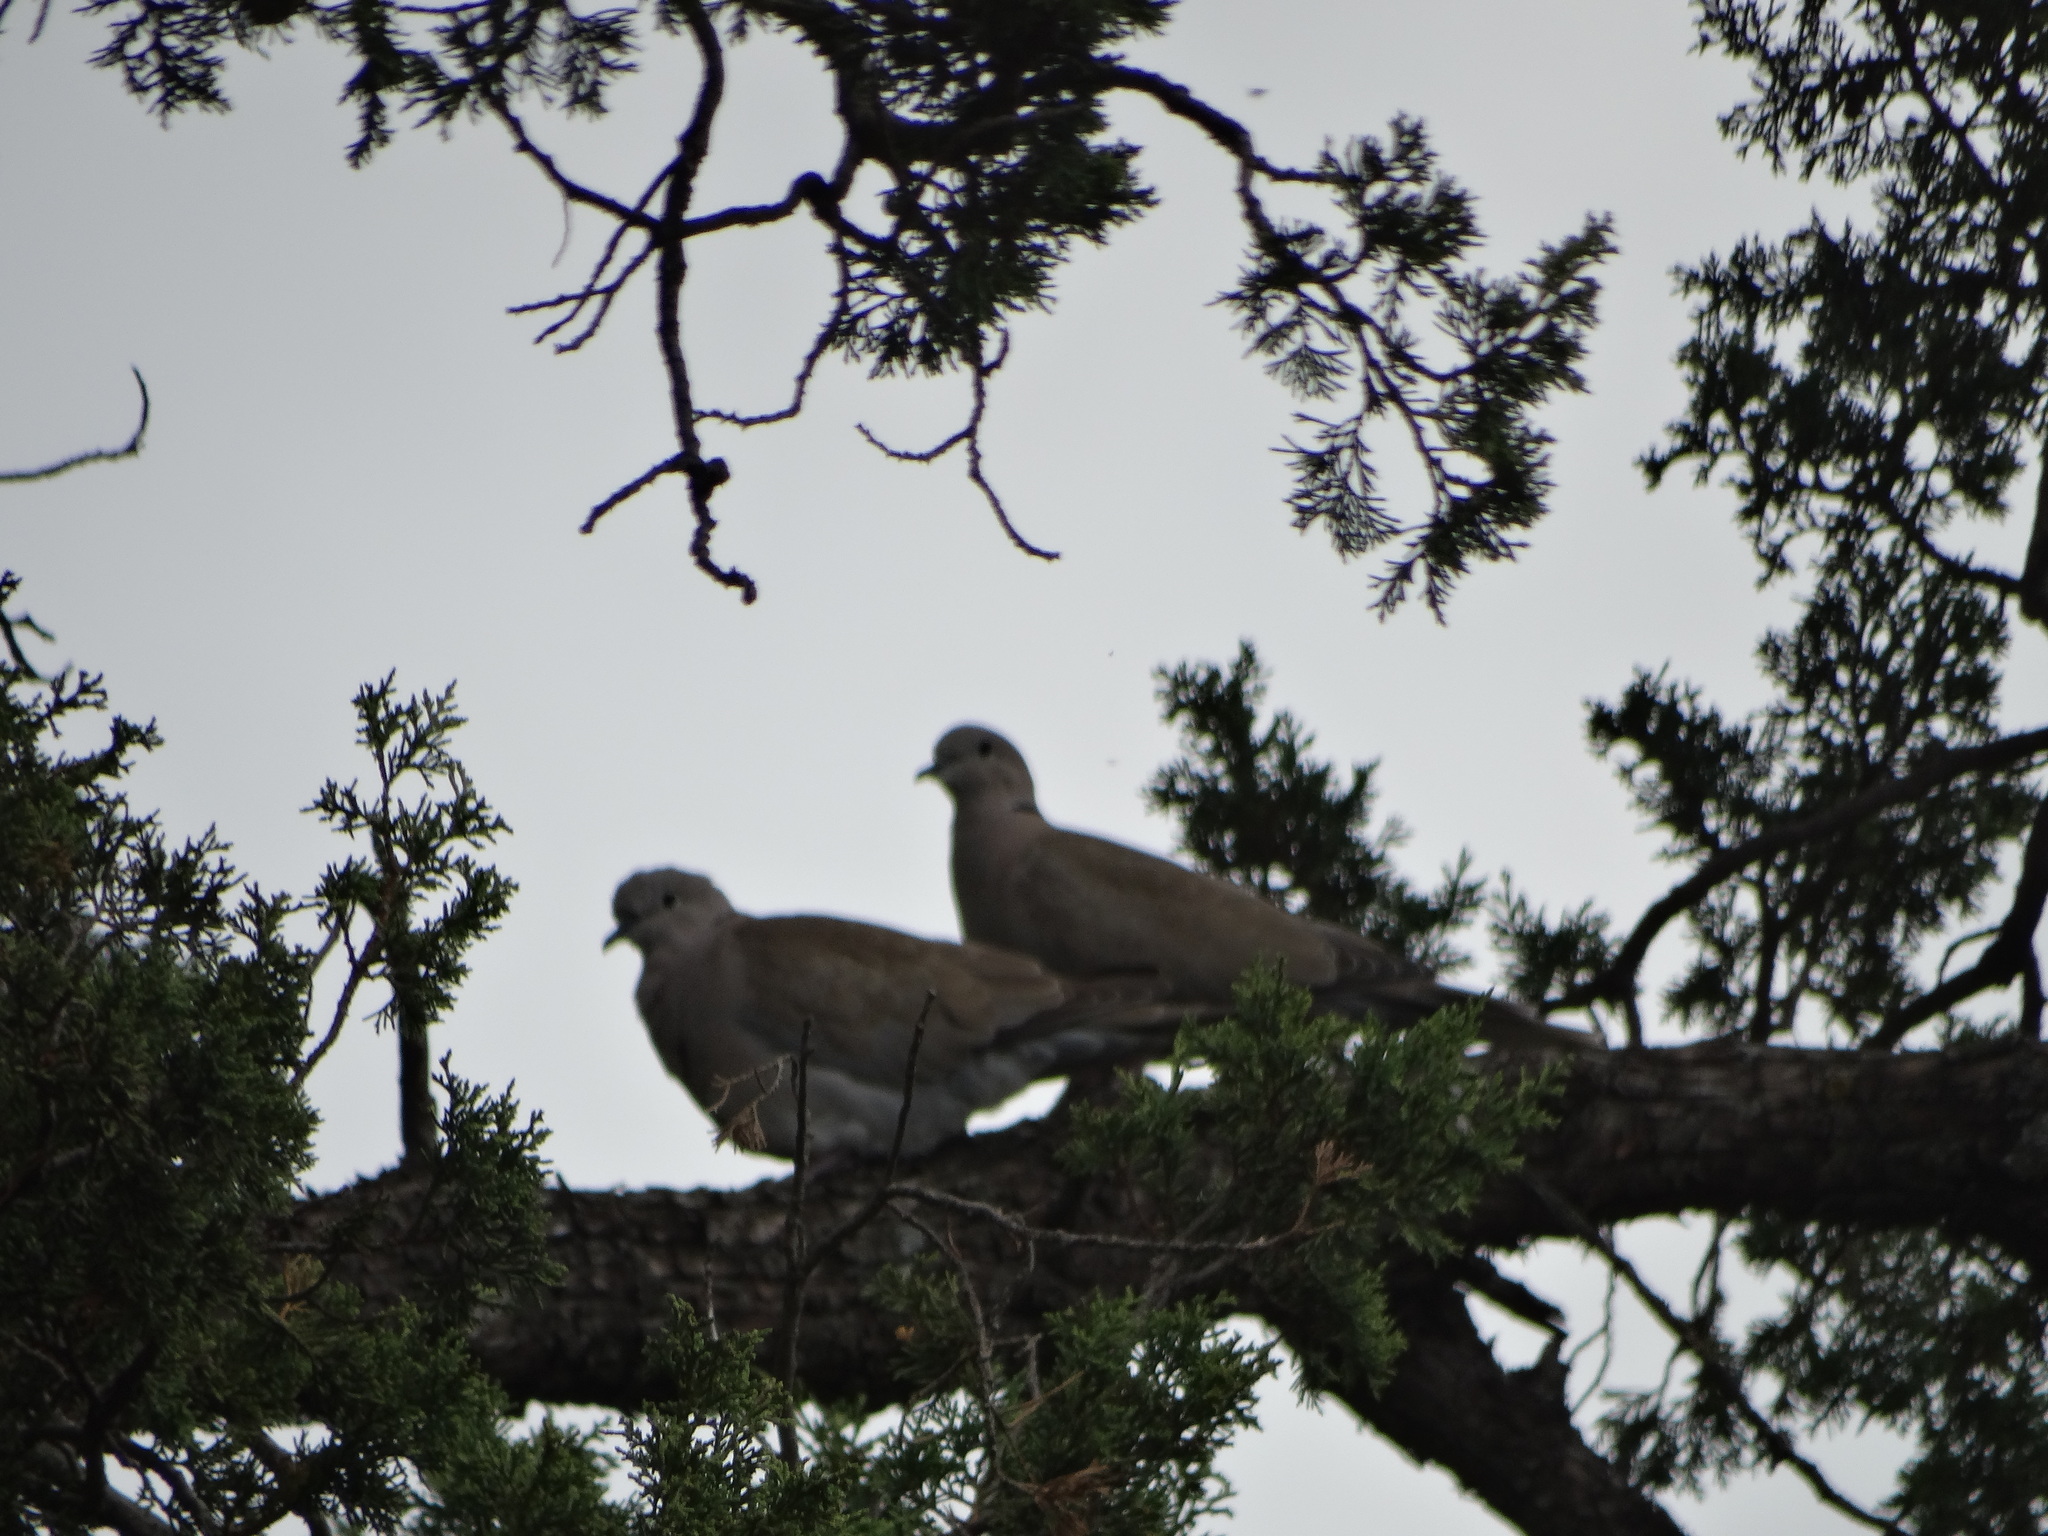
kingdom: Animalia
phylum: Chordata
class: Aves
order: Columbiformes
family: Columbidae
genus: Streptopelia
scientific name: Streptopelia decaocto
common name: Eurasian collared dove
